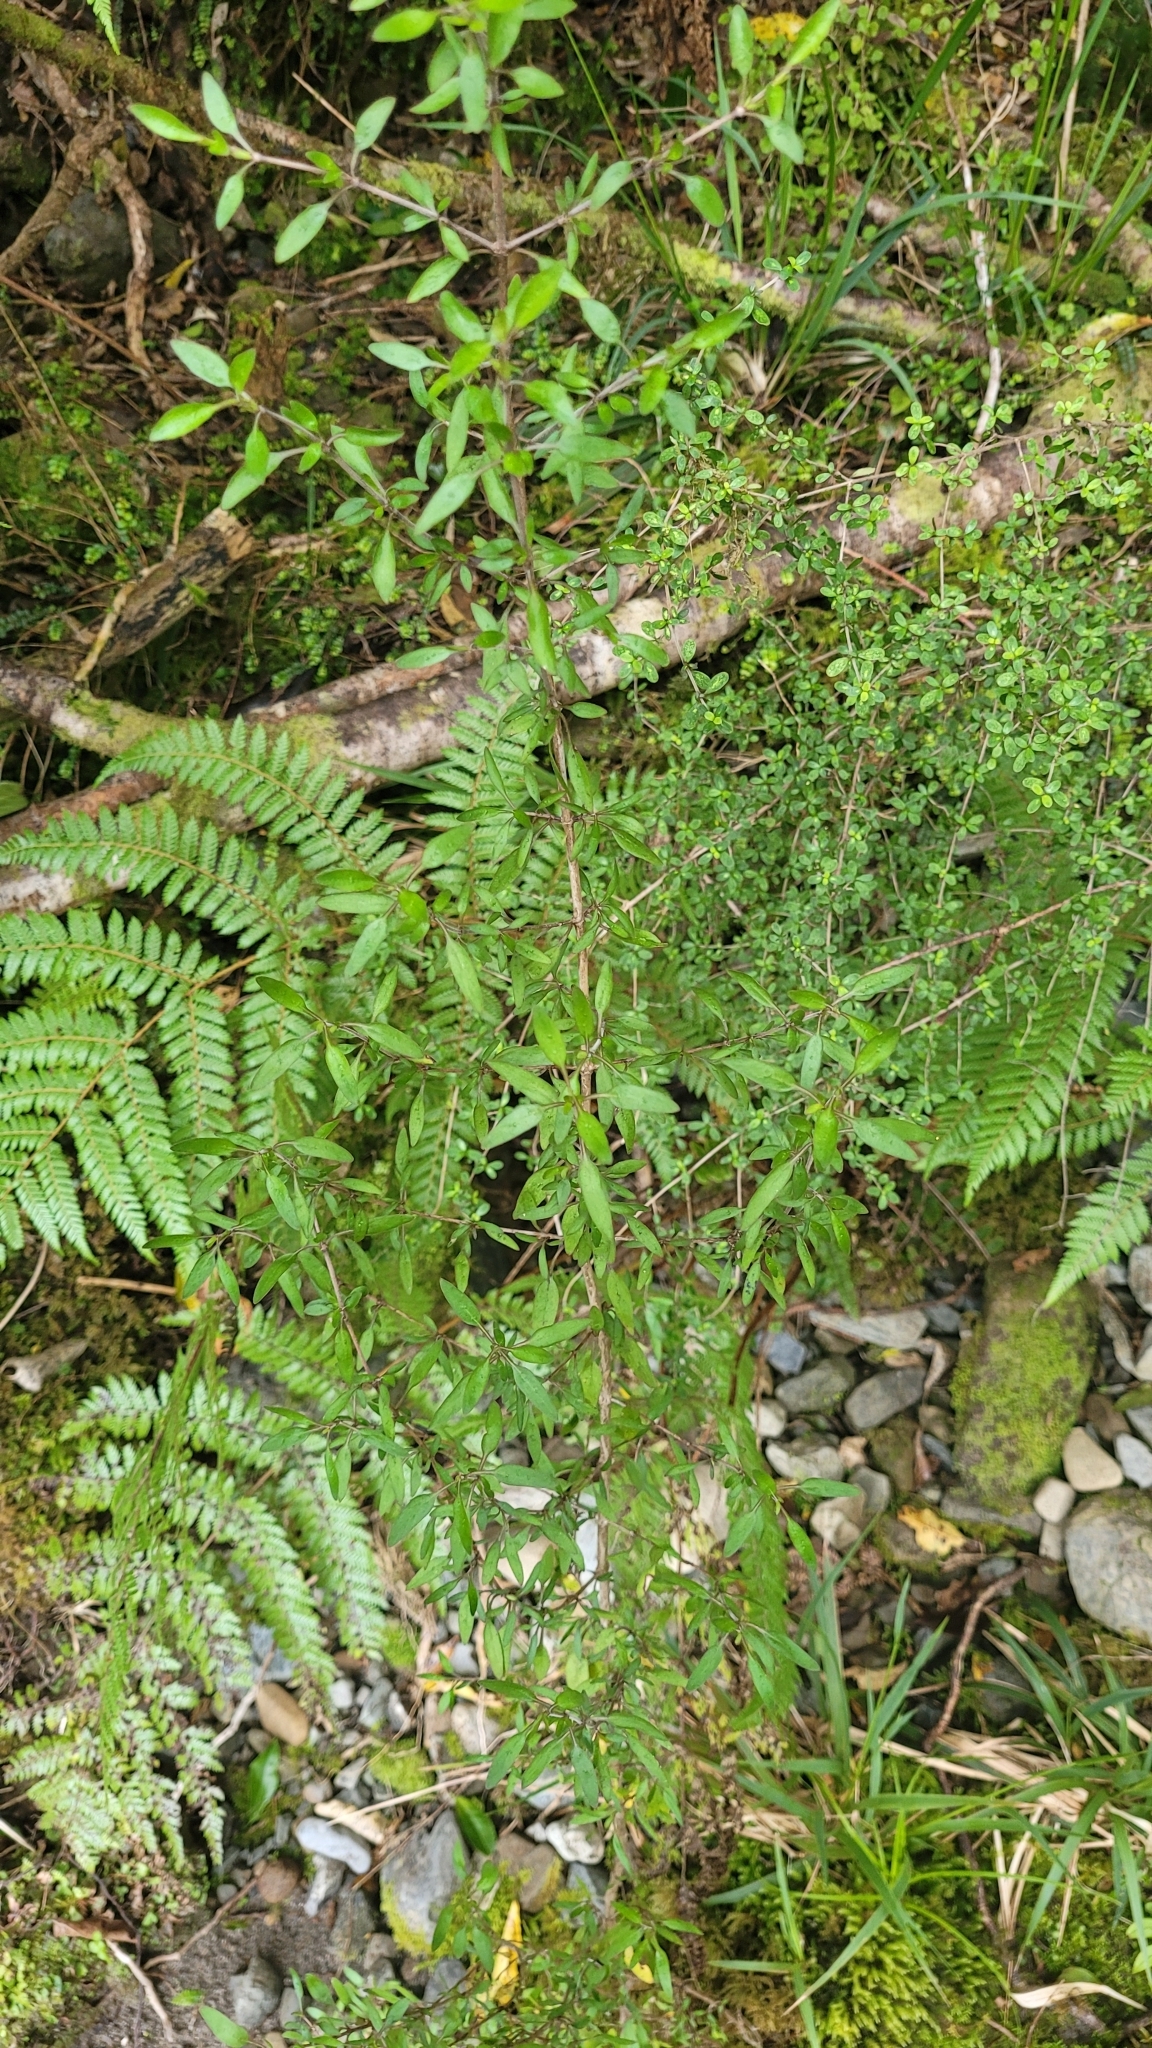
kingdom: Plantae
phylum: Tracheophyta
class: Magnoliopsida
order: Gentianales
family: Rubiaceae
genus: Coprosma
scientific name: Coprosma cunninghamii
